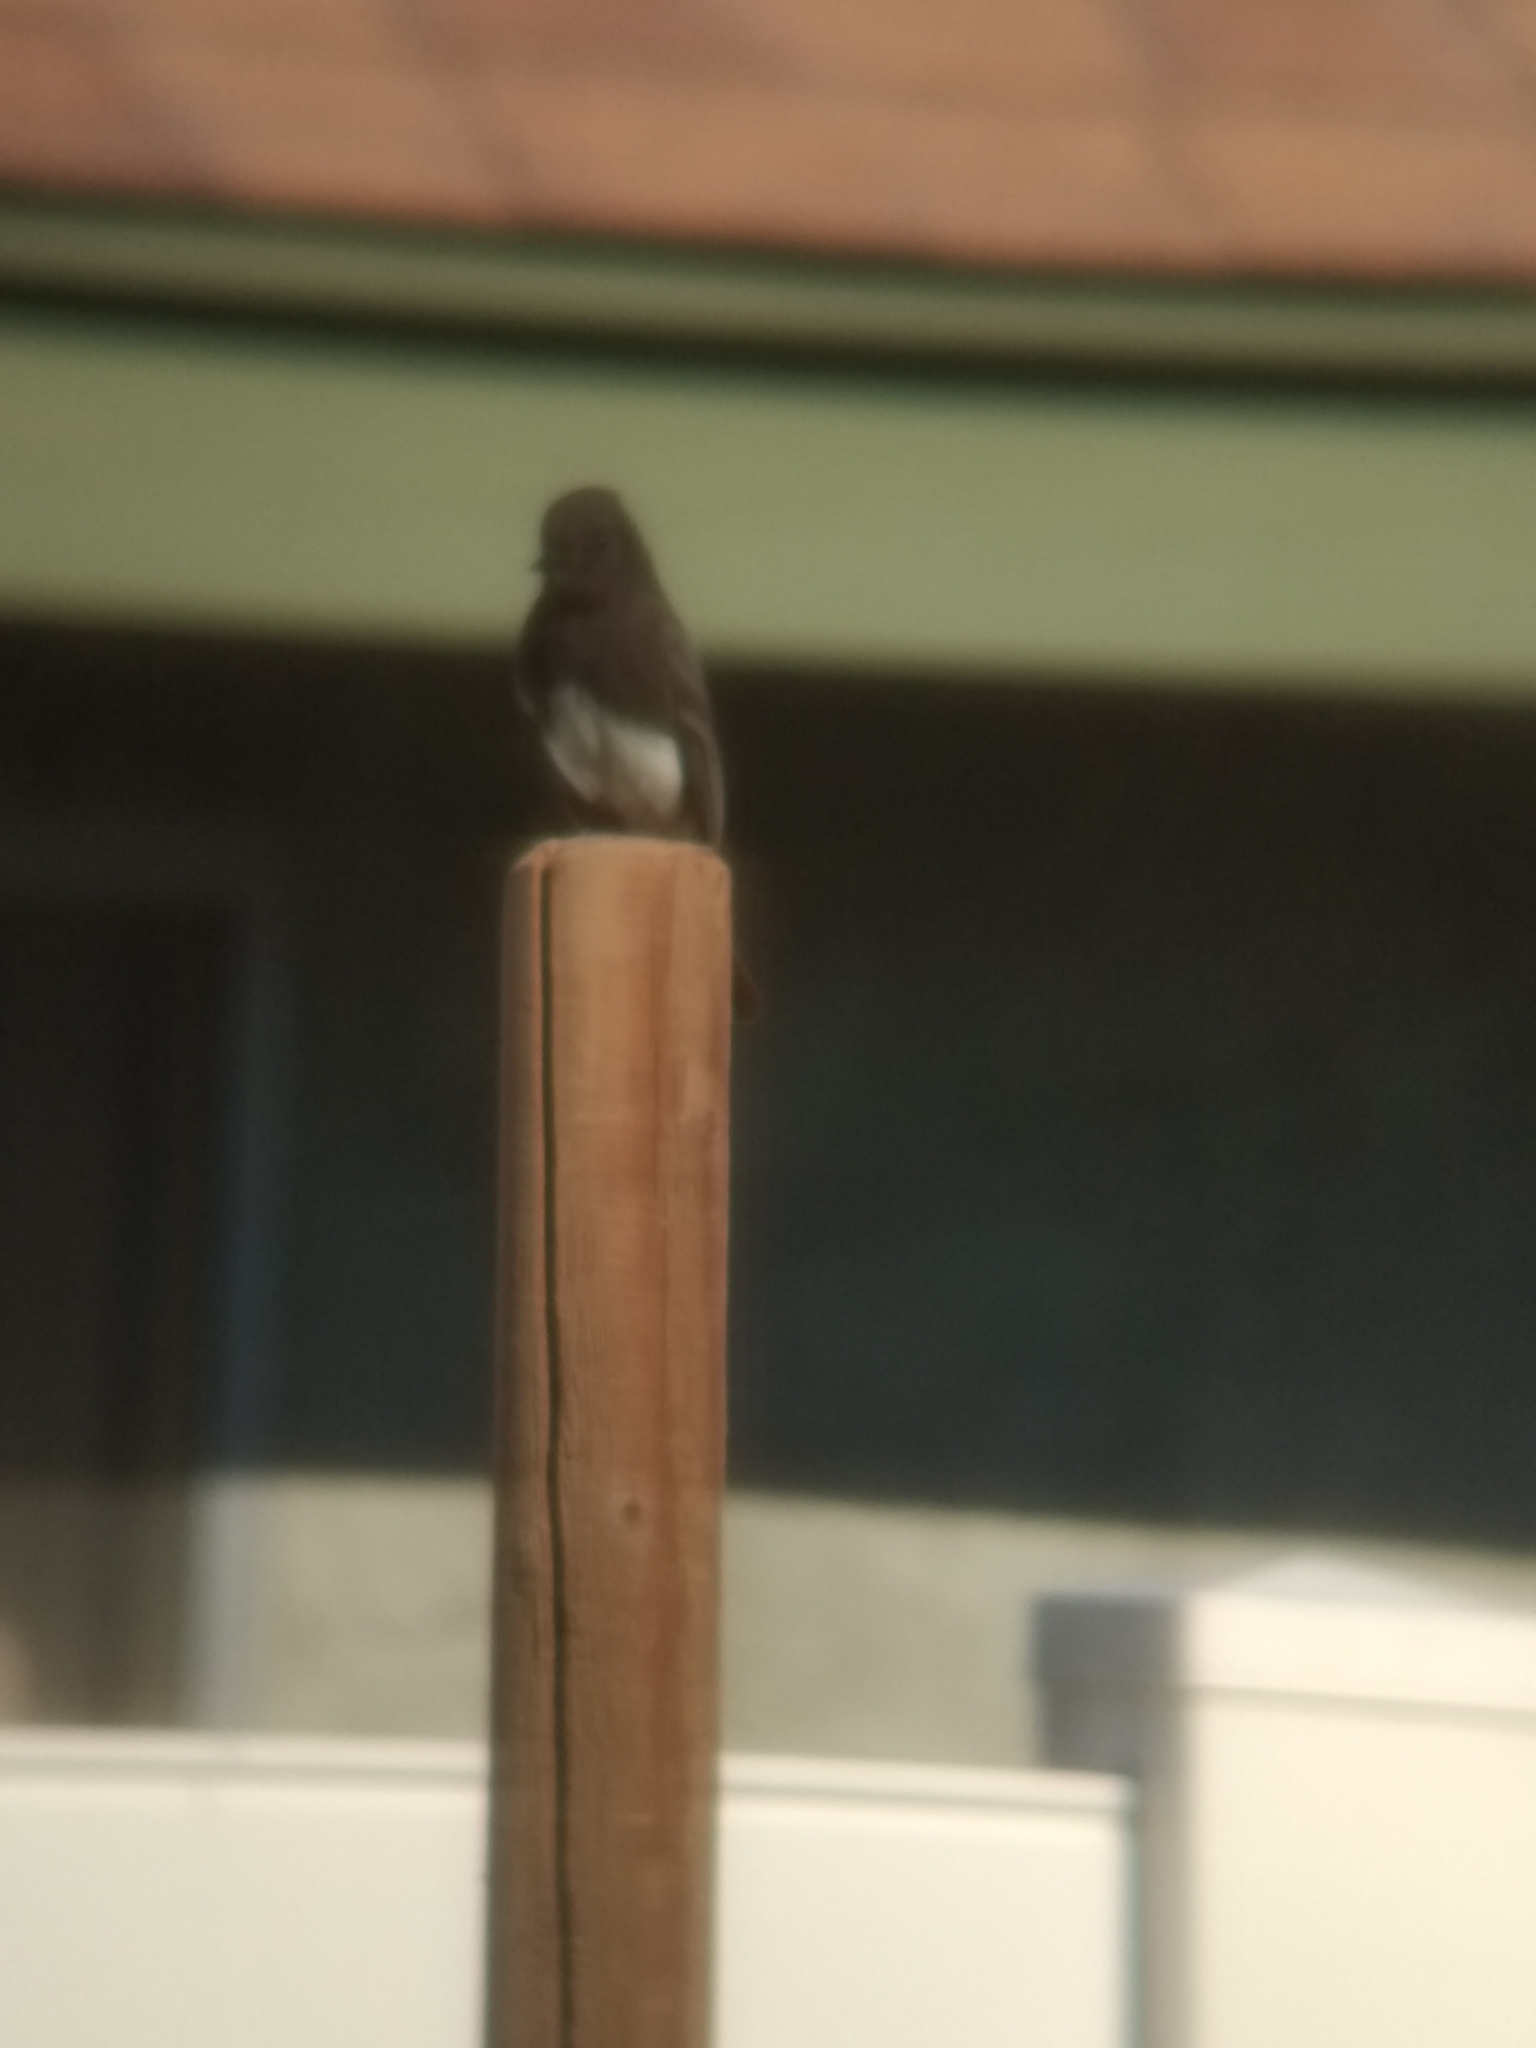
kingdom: Animalia
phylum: Chordata
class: Aves
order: Passeriformes
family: Tyrannidae
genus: Sayornis
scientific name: Sayornis nigricans
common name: Black phoebe
